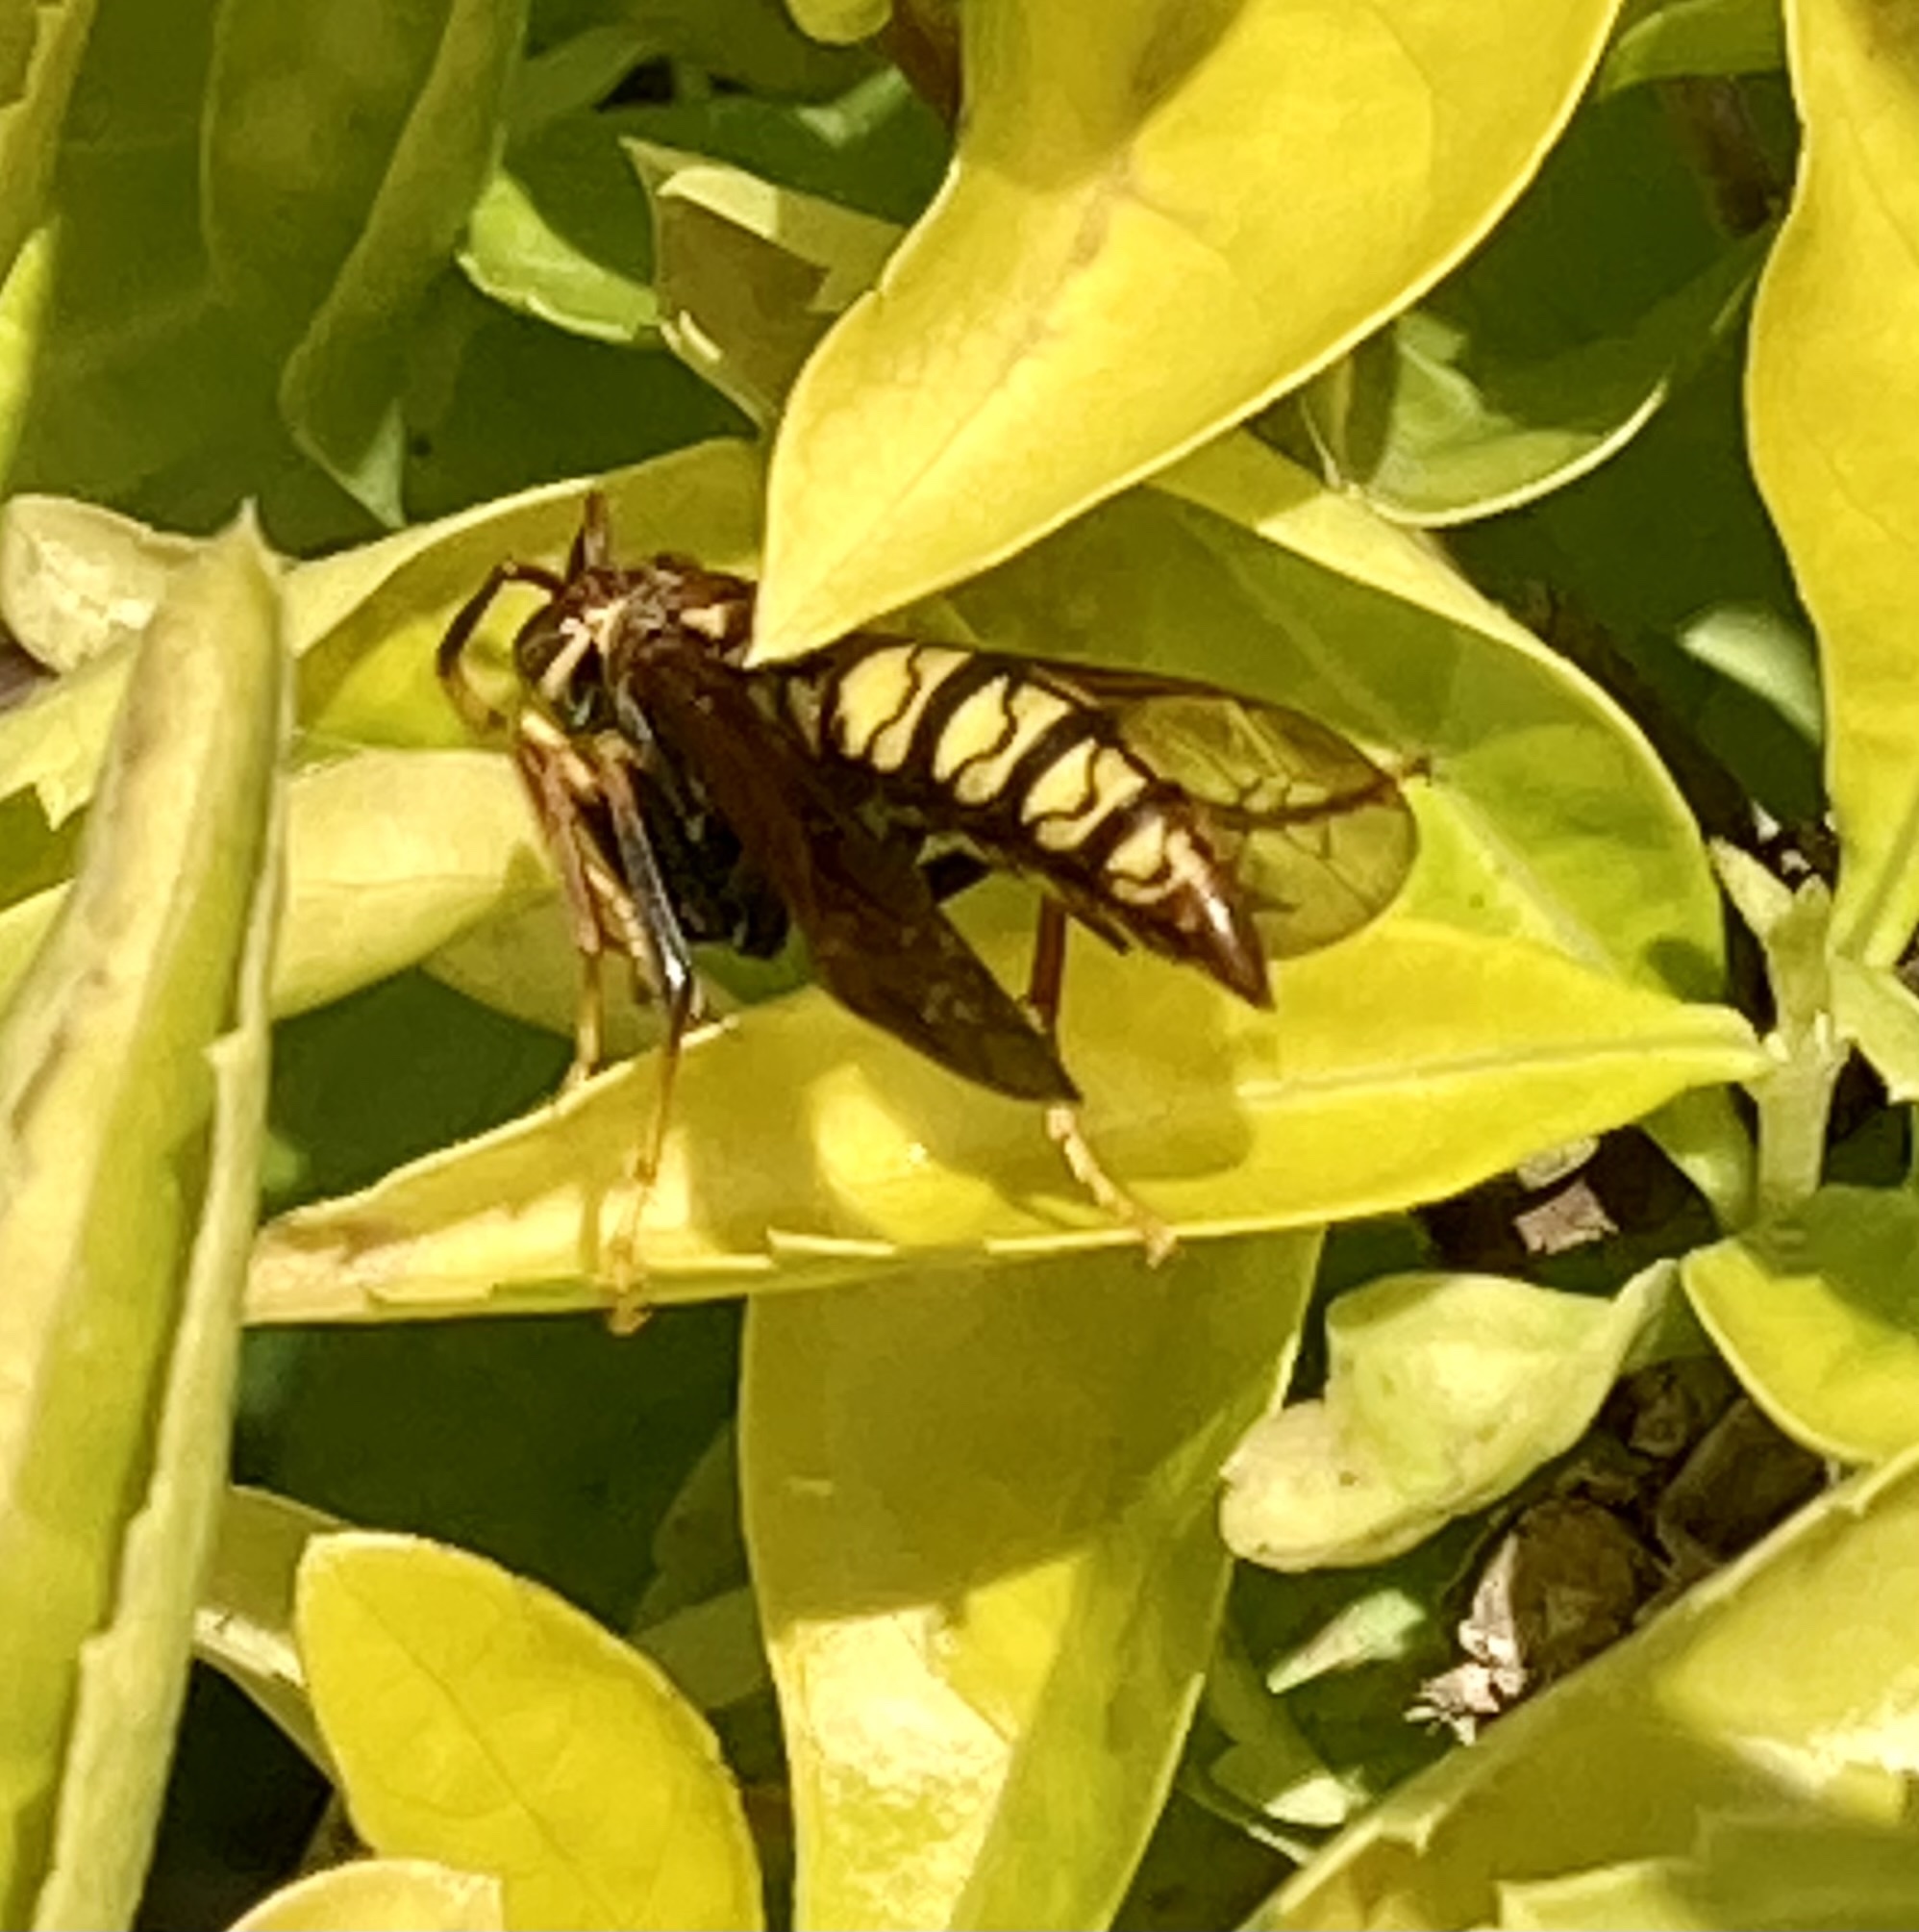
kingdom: Animalia
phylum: Arthropoda
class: Insecta
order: Hymenoptera
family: Eumenidae
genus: Polistes
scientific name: Polistes myersi
